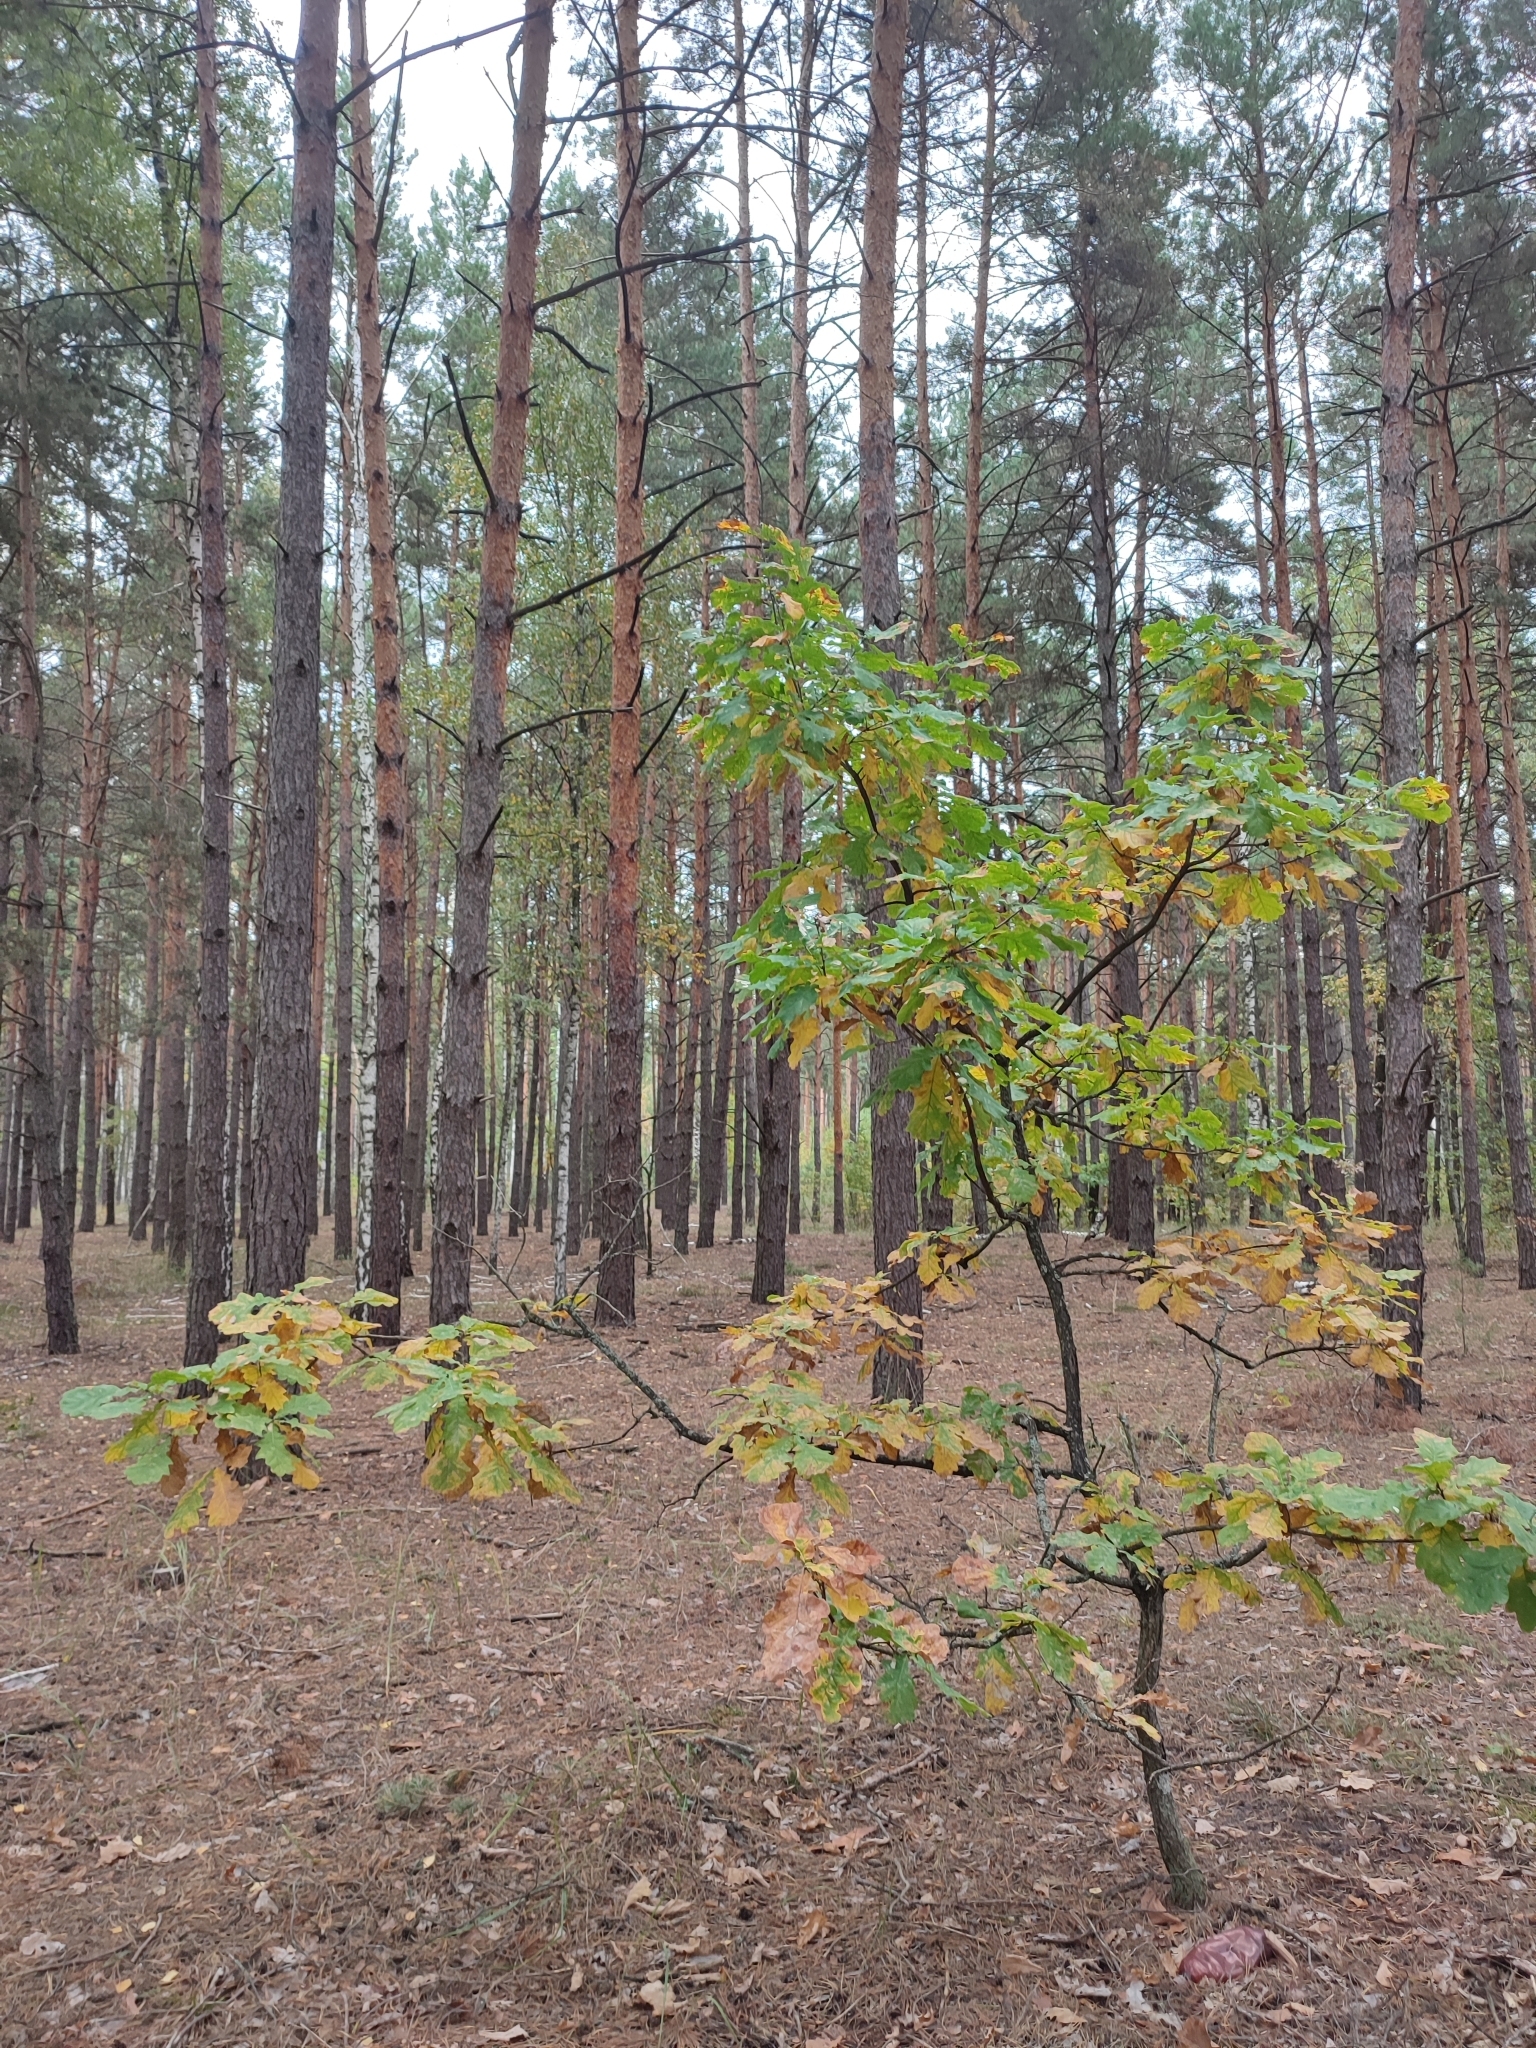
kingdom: Plantae
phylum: Tracheophyta
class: Magnoliopsida
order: Fagales
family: Fagaceae
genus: Quercus
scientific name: Quercus robur
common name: Pedunculate oak
